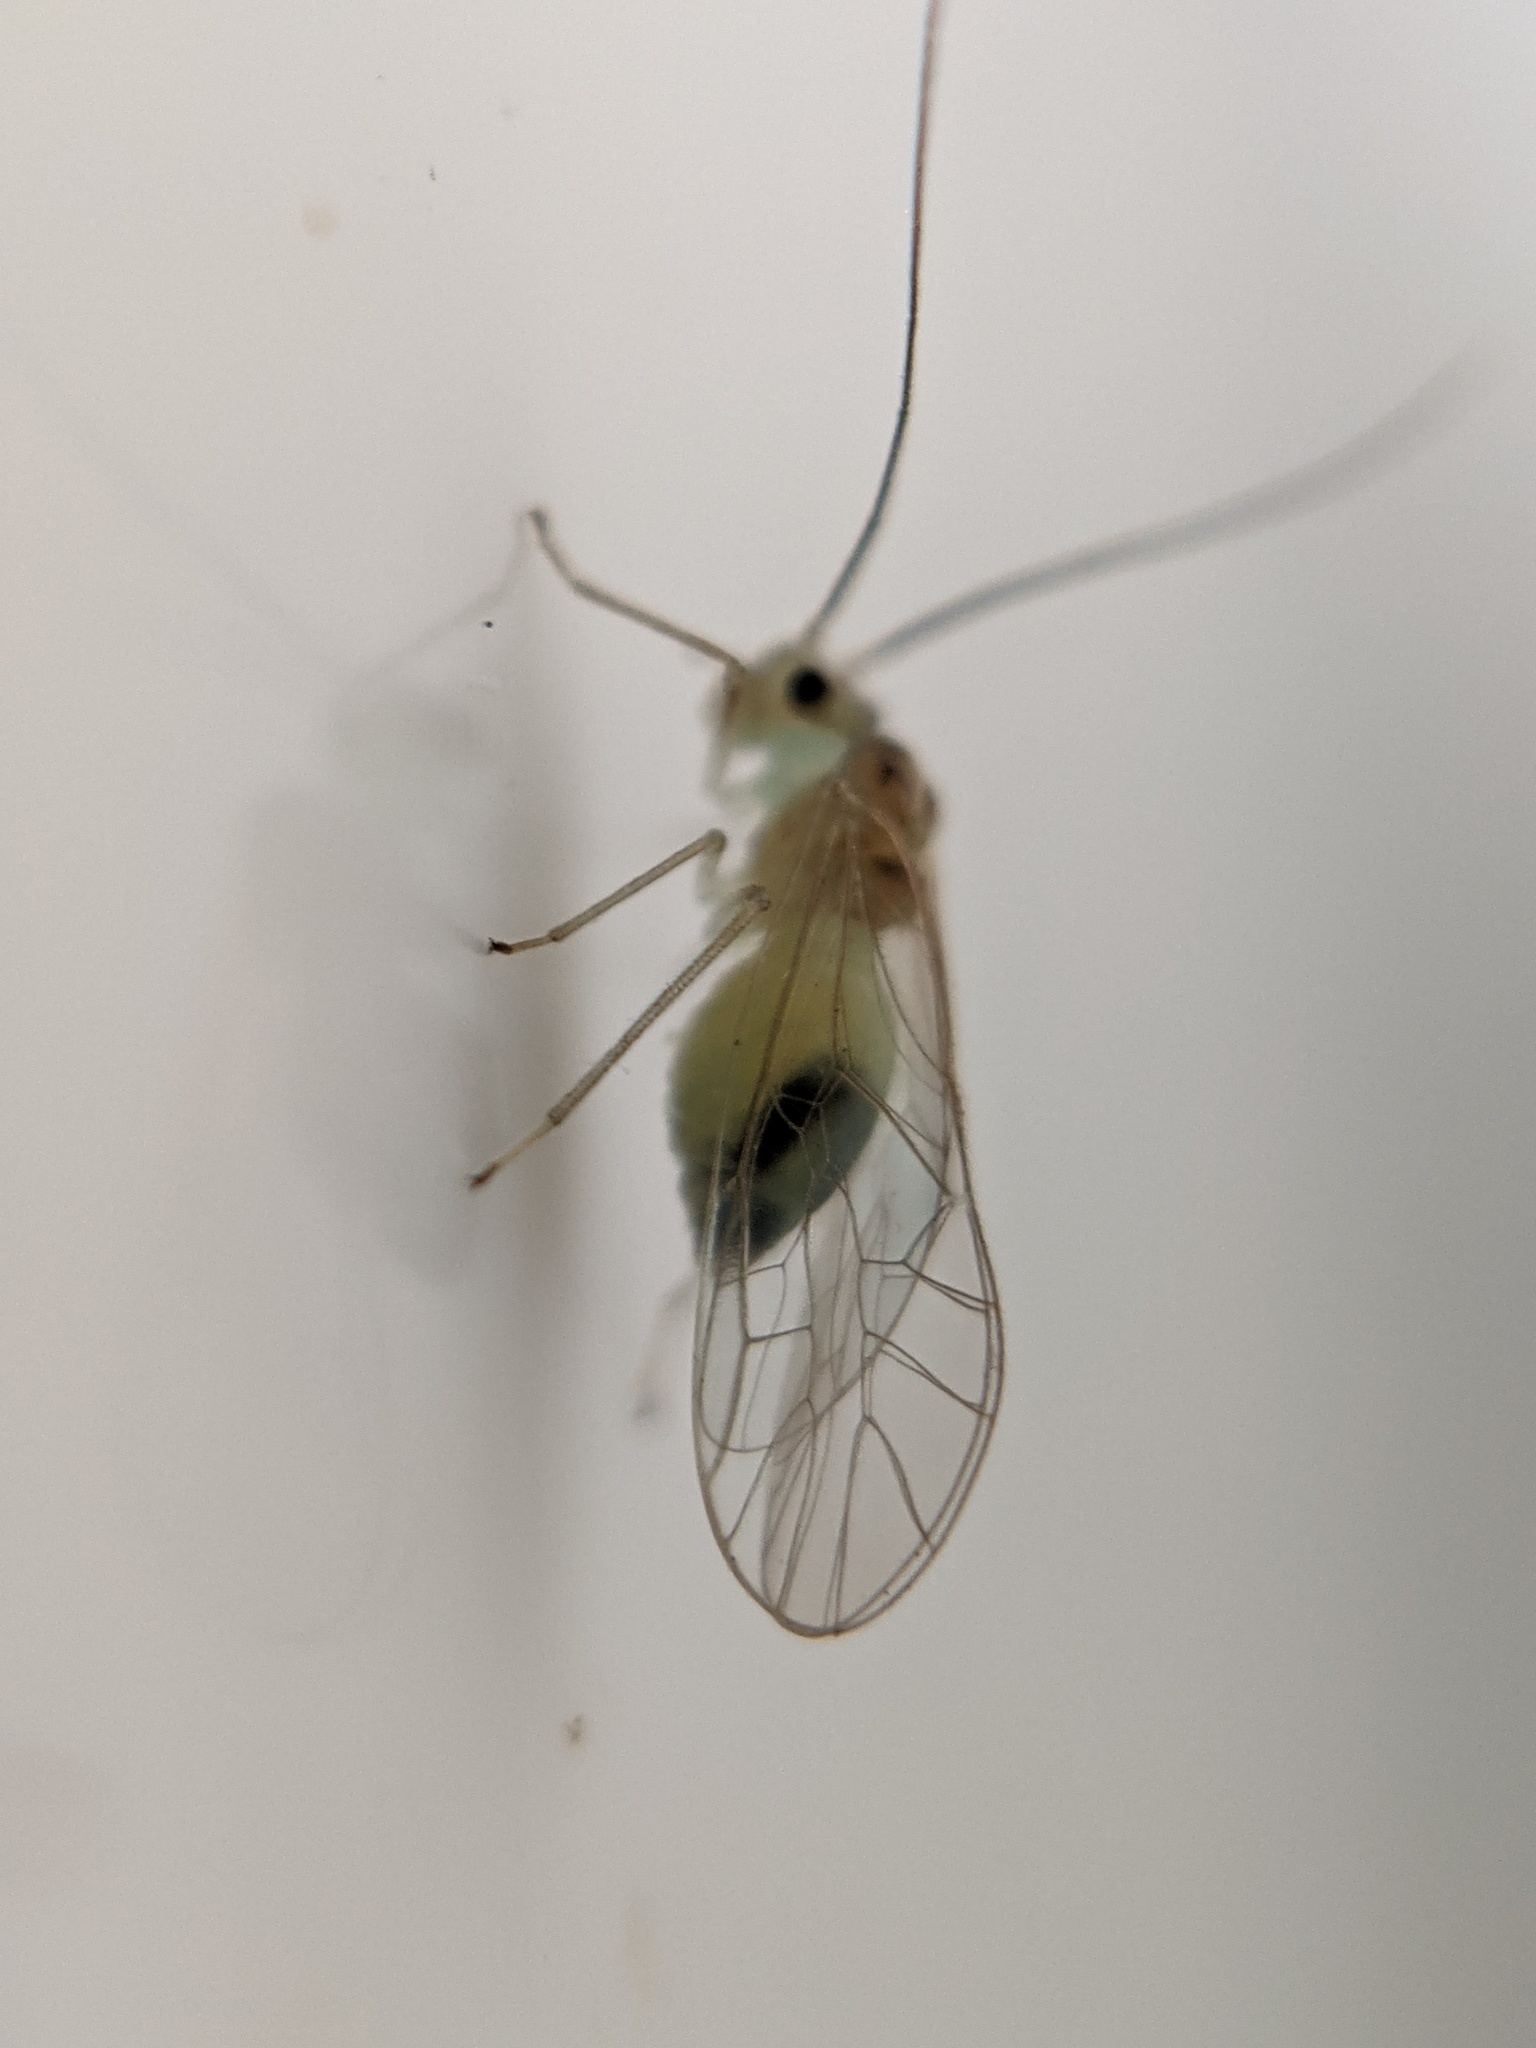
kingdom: Animalia
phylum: Arthropoda
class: Insecta
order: Psocodea
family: Stenopsocidae
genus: Stenopsocus
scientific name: Stenopsocus immaculatus
